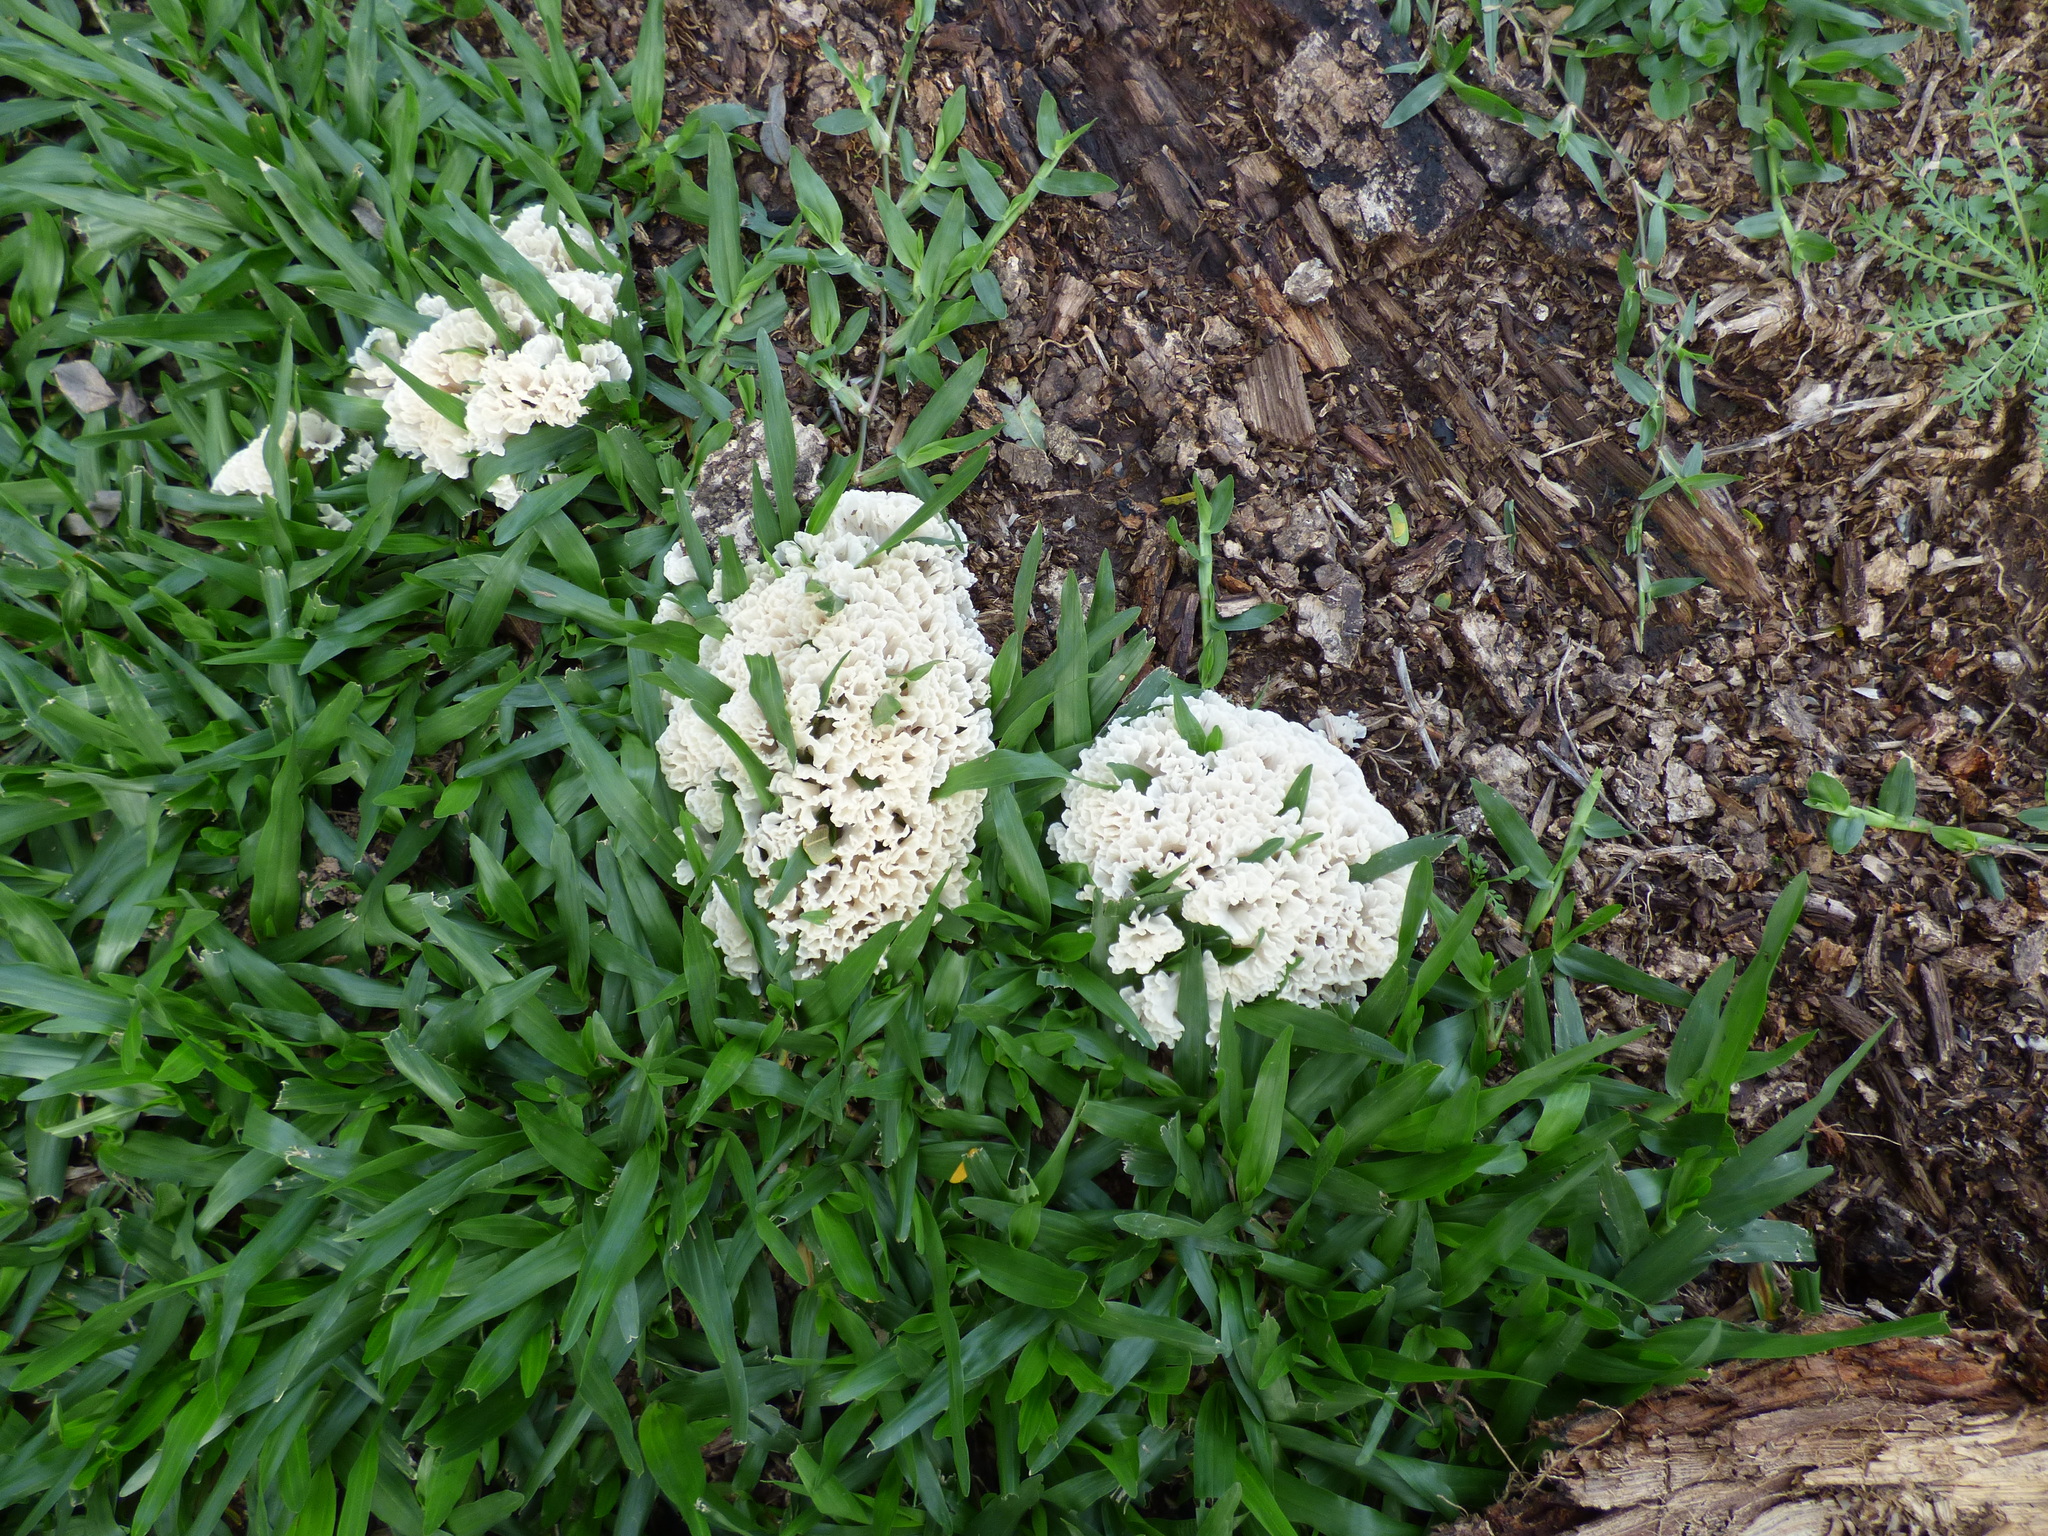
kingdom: Fungi
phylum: Basidiomycota
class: Agaricomycetes
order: Polyporales
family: Irpicaceae
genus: Irpex
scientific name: Irpex rosettiformis
